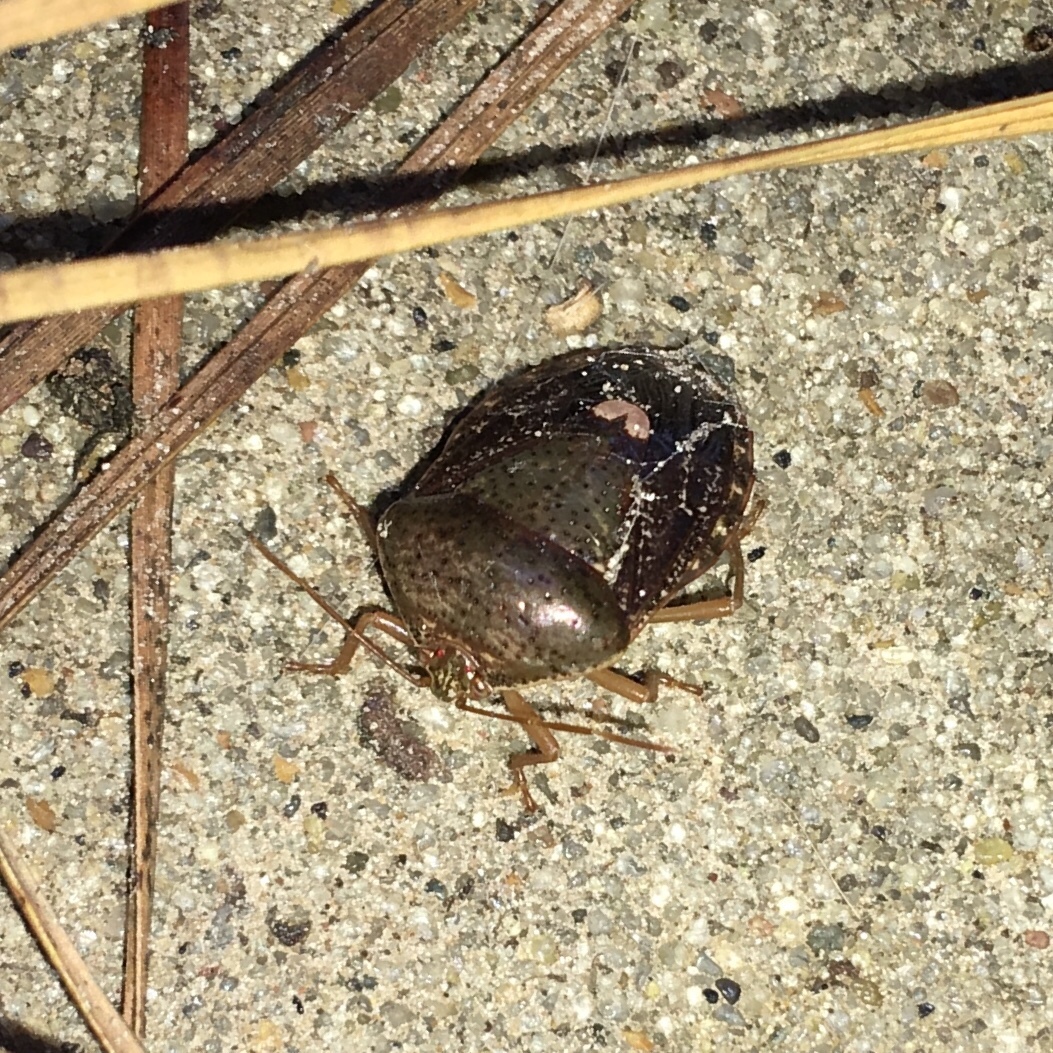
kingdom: Animalia
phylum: Arthropoda
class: Insecta
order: Hemiptera
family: Pentatomidae
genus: Edessa
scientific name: Edessa bifida
